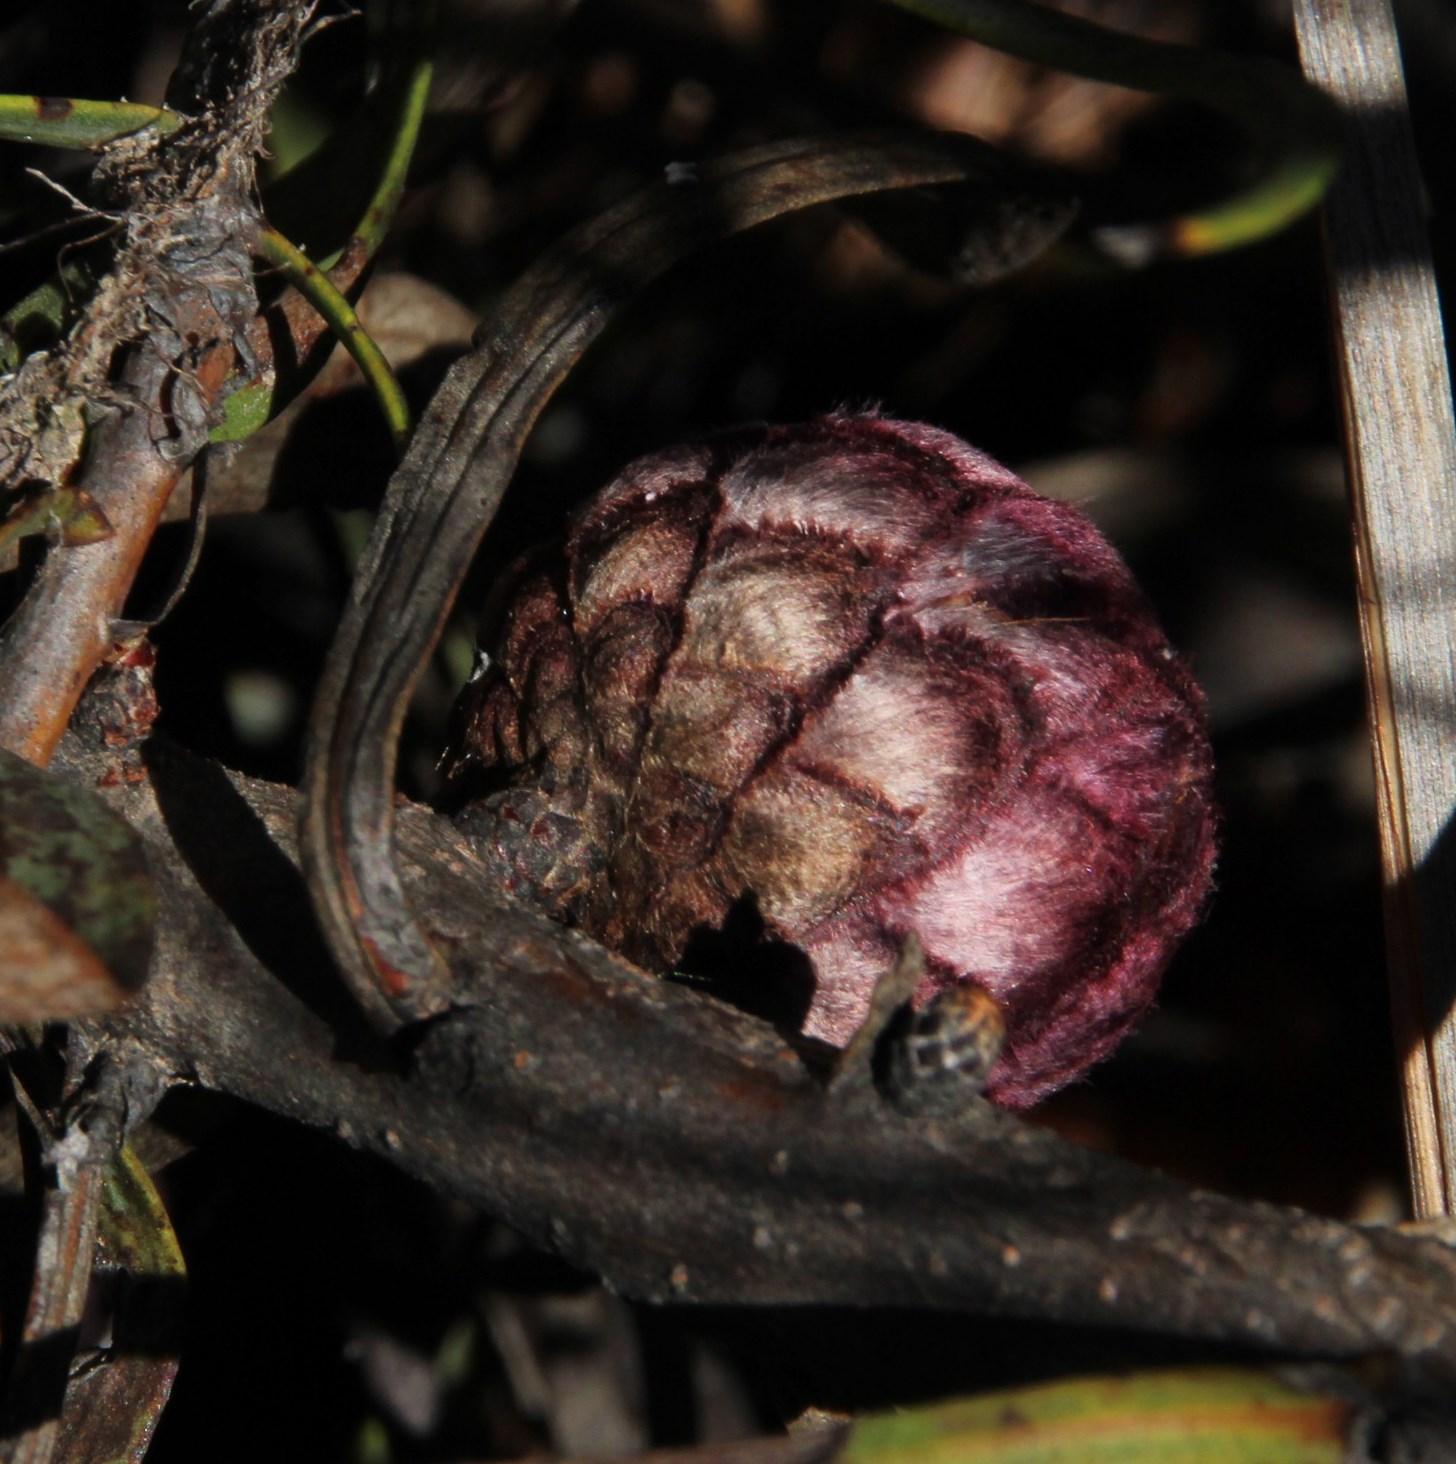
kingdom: Plantae
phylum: Tracheophyta
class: Magnoliopsida
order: Proteales
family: Proteaceae
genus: Protea
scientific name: Protea humiflora
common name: Patent-leaf sugarbush
